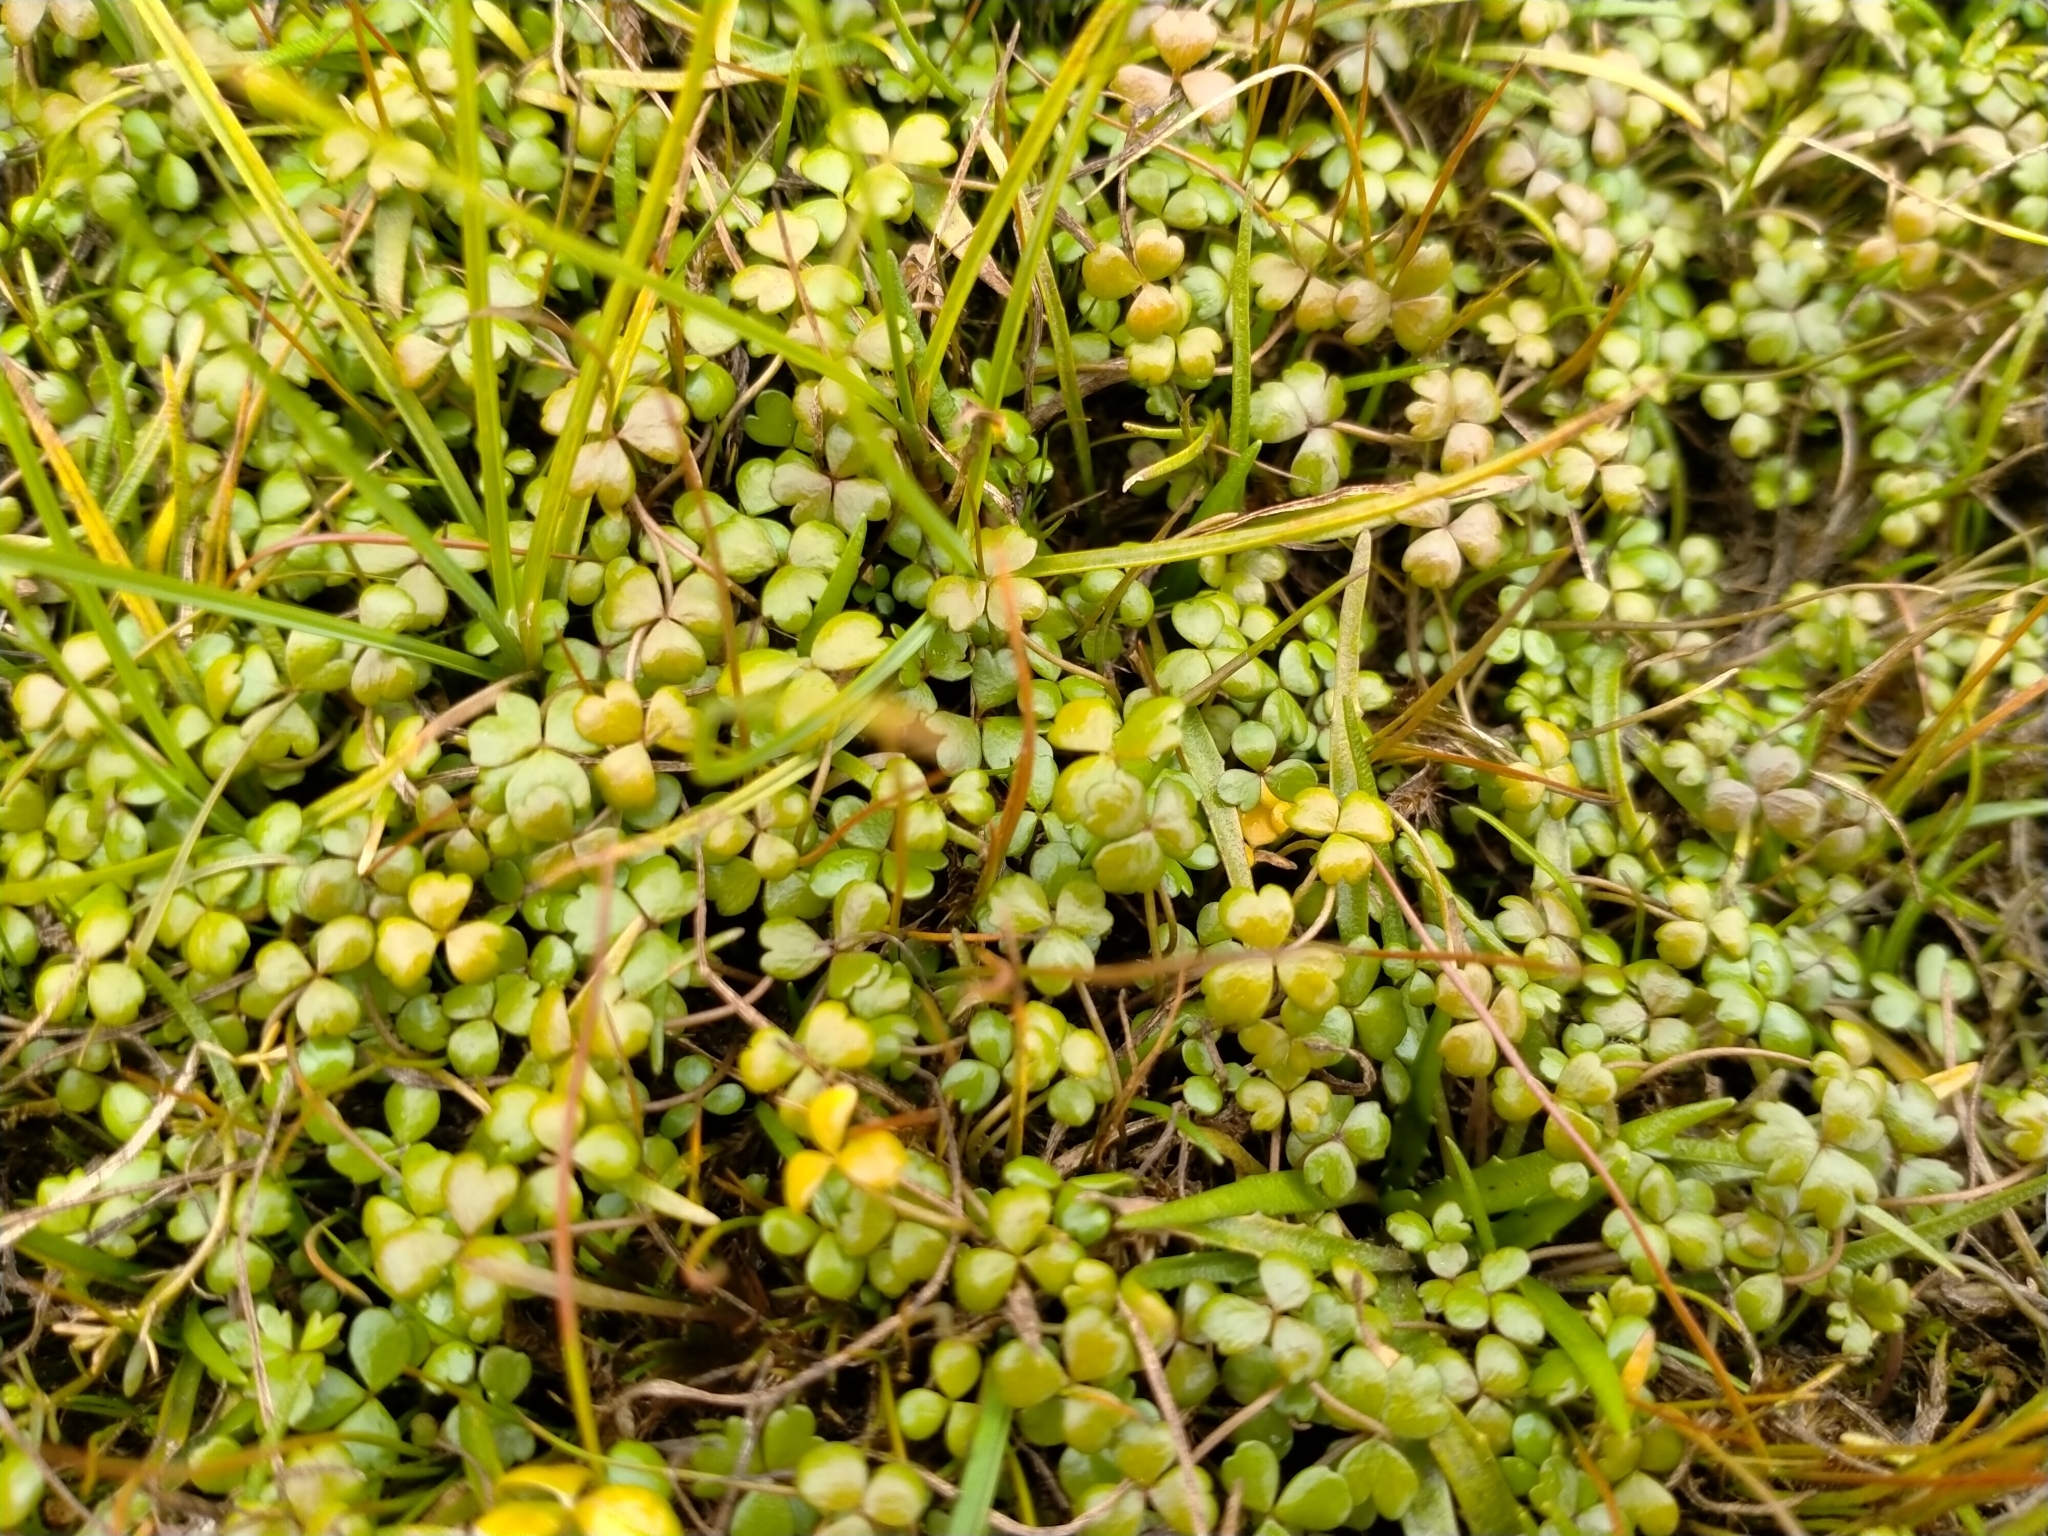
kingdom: Plantae
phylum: Tracheophyta
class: Magnoliopsida
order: Apiales
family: Araliaceae
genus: Hydrocotyle
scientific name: Hydrocotyle sulcata
